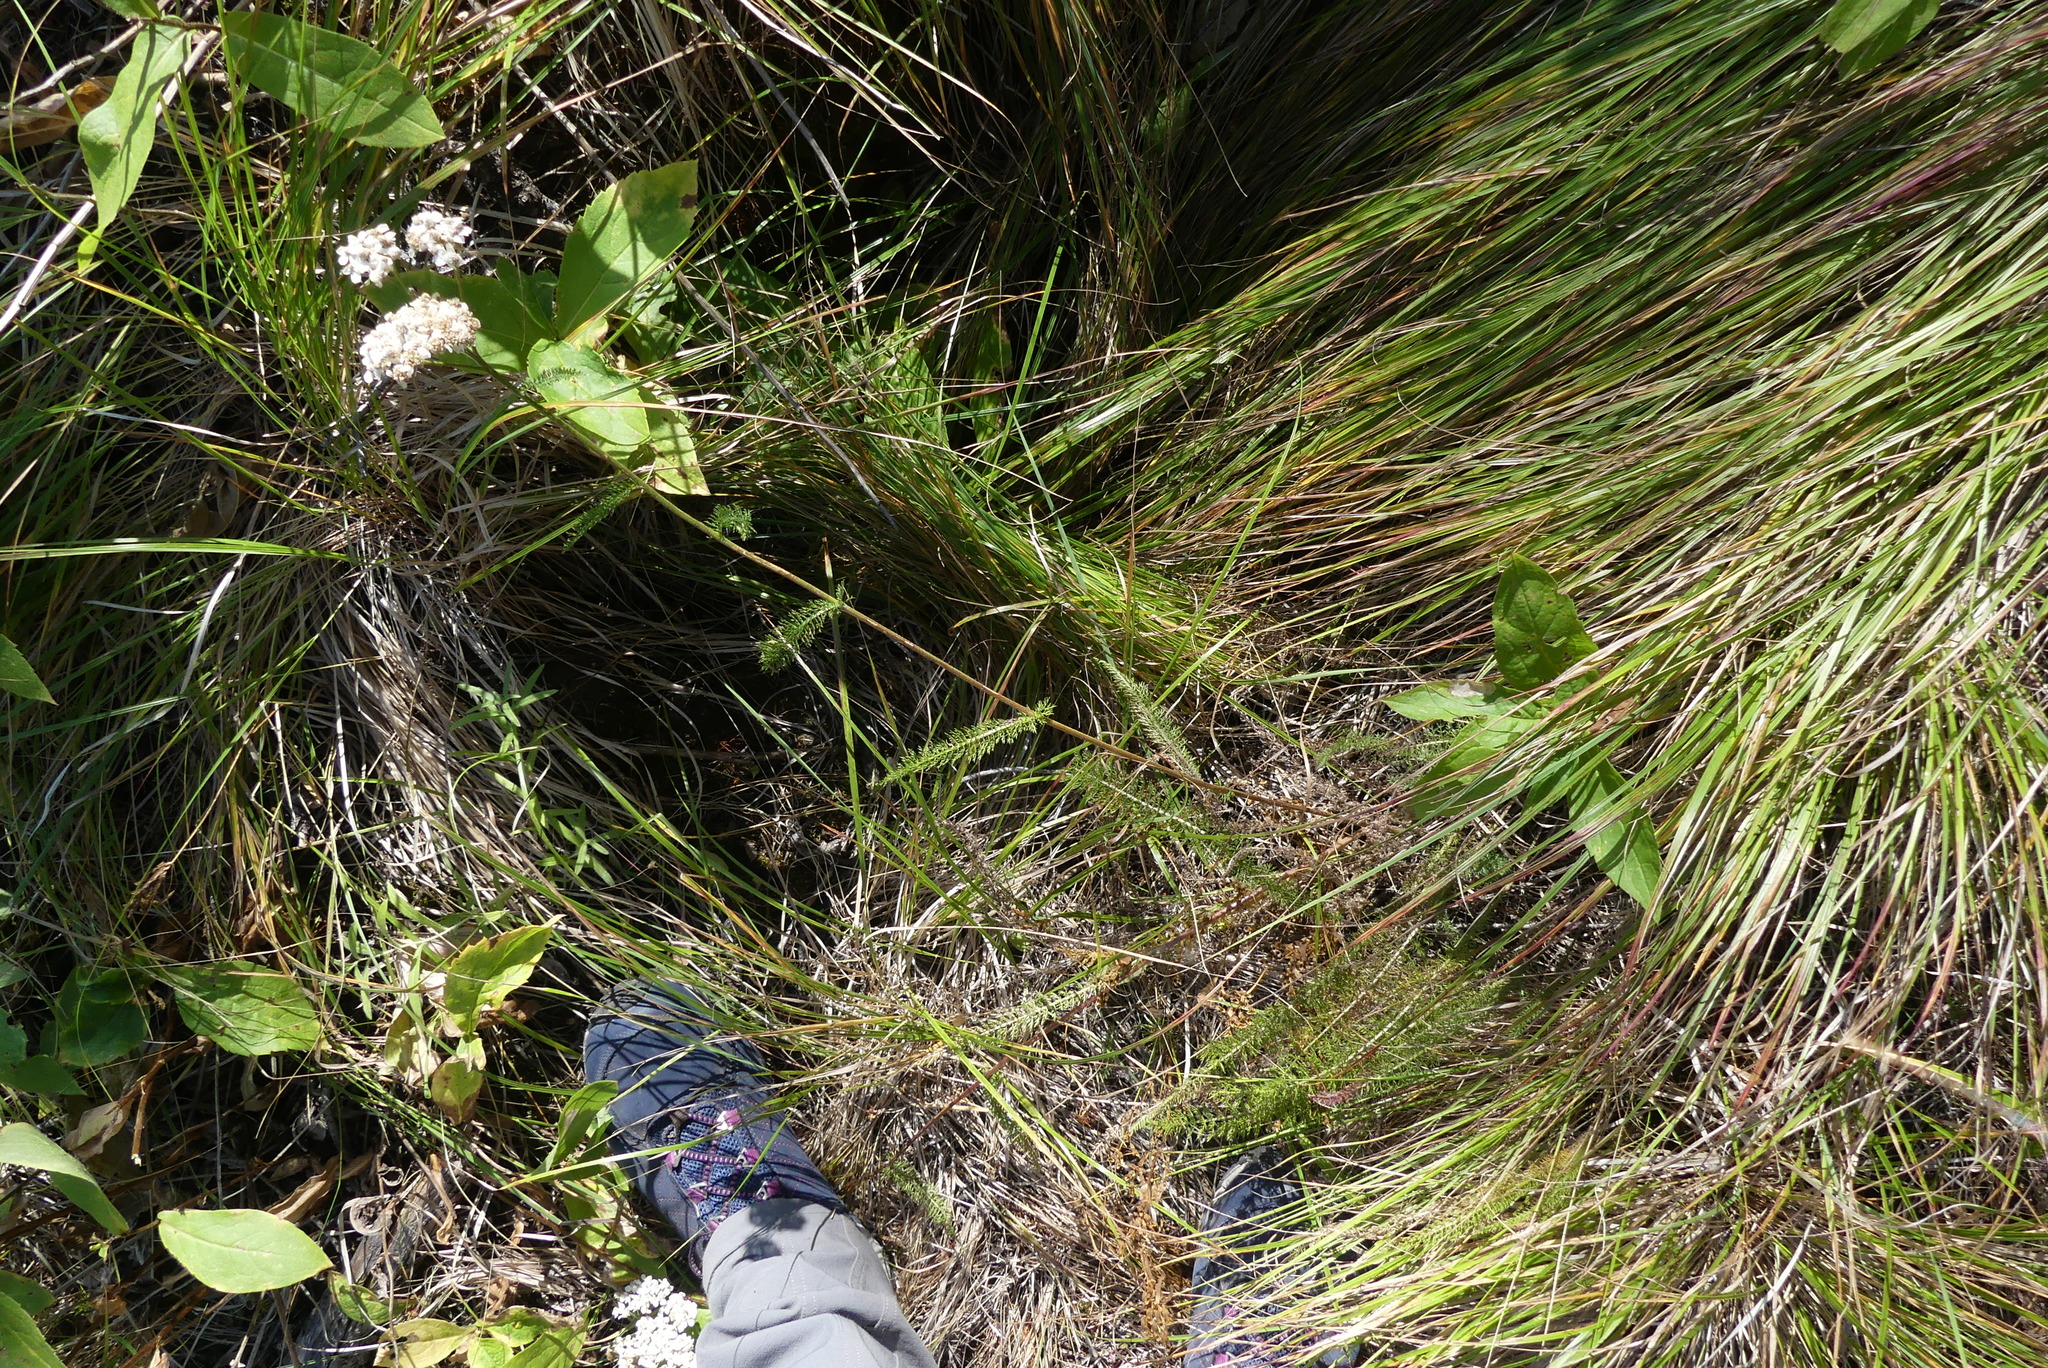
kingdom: Plantae
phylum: Tracheophyta
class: Magnoliopsida
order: Asterales
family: Asteraceae
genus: Achillea
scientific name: Achillea millefolium
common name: Yarrow
